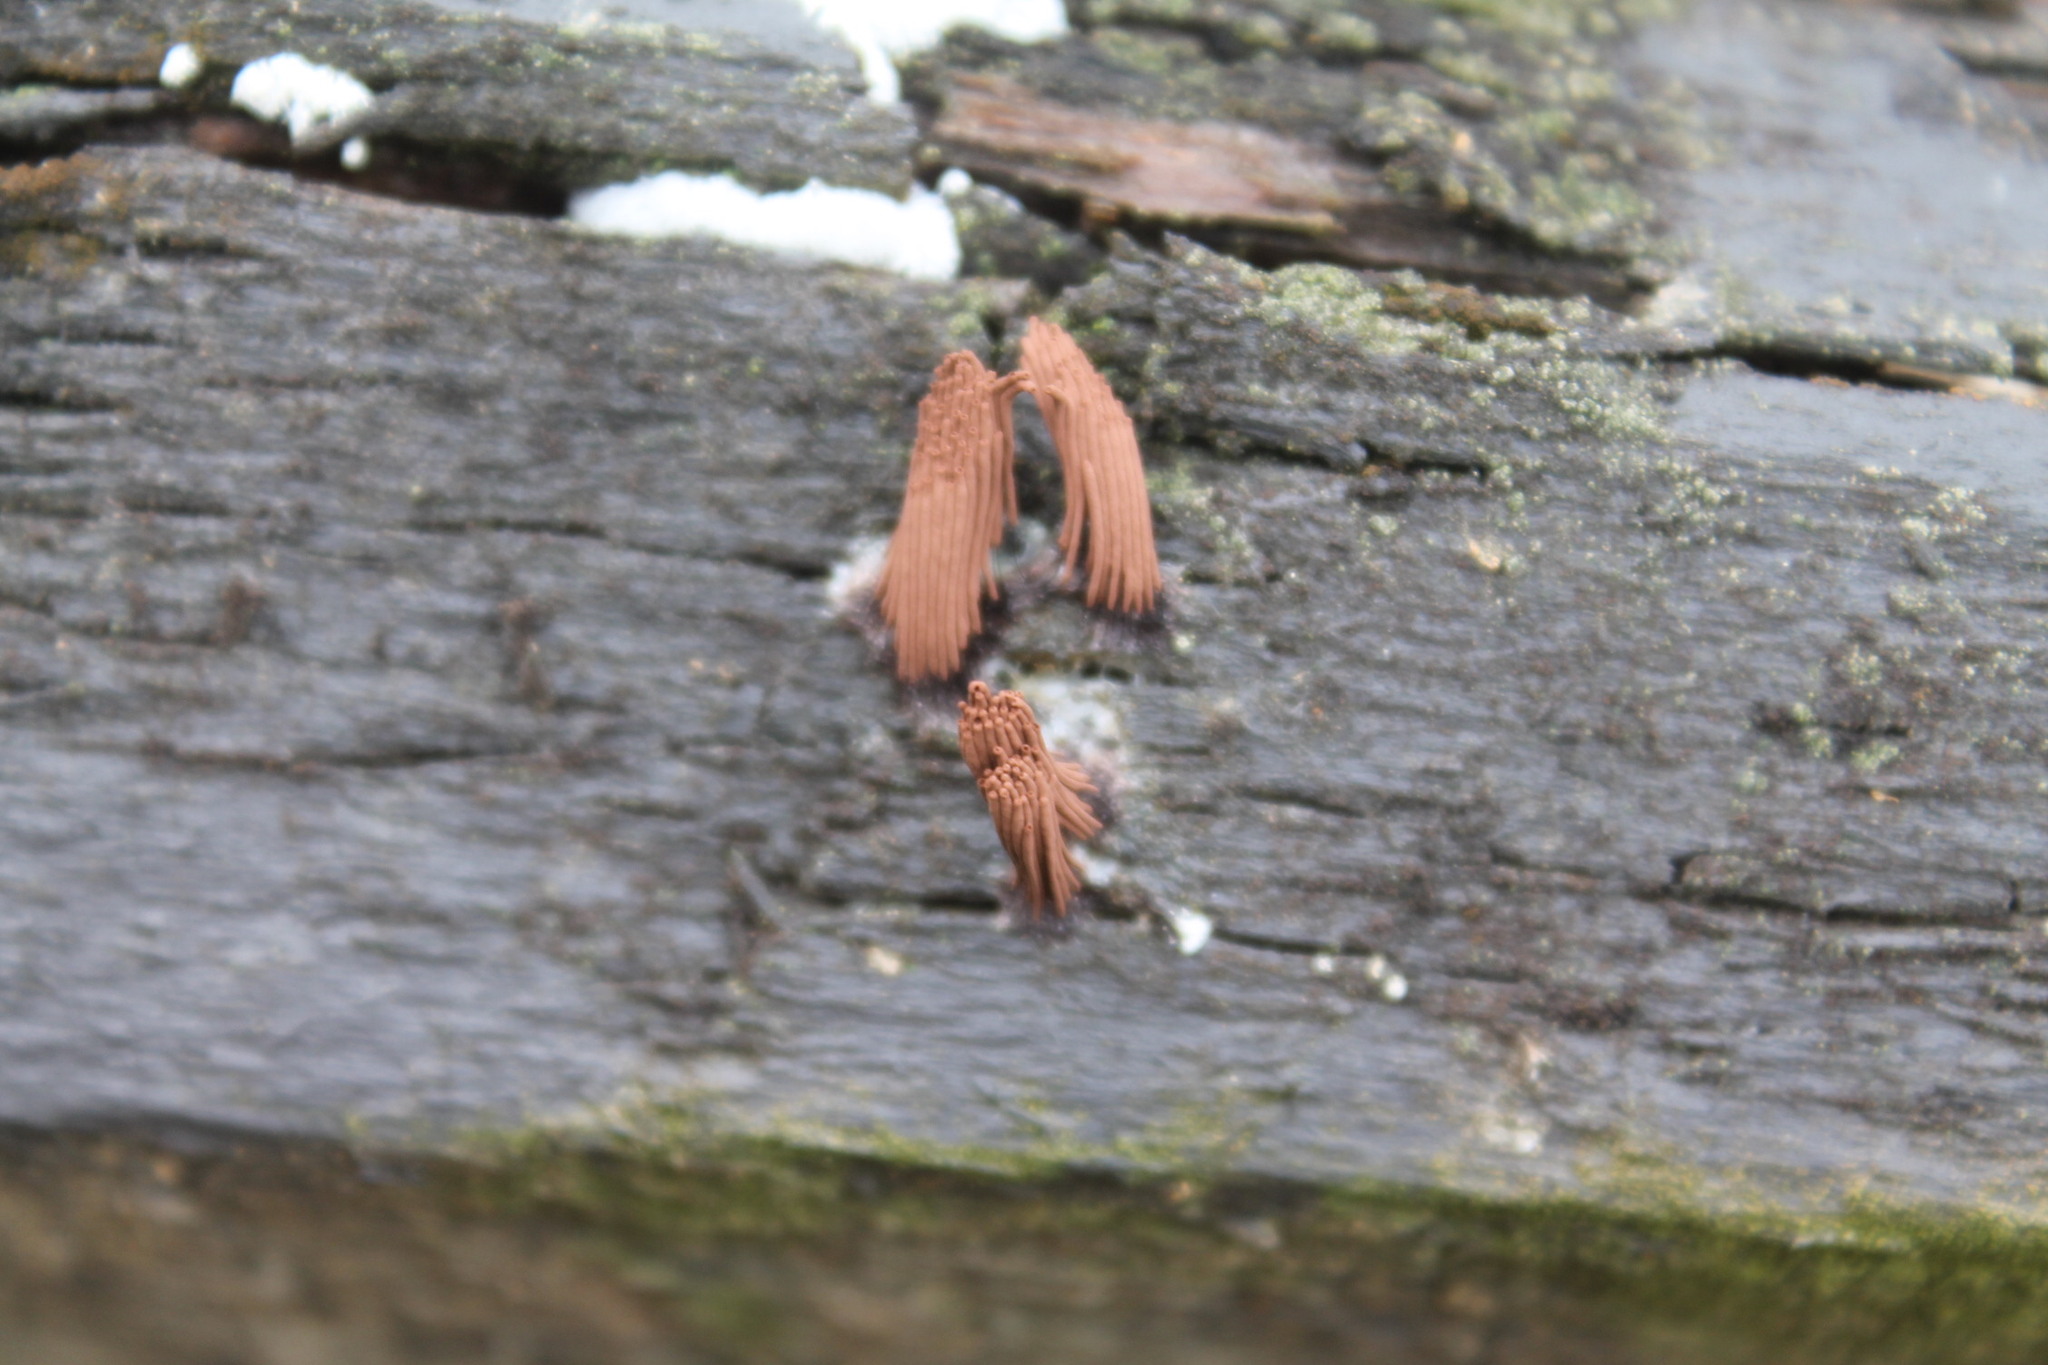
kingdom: Protozoa
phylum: Mycetozoa
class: Myxomycetes
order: Stemonitidales
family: Stemonitidaceae
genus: Stemonitis
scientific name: Stemonitis splendens
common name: Chocolate tube slime
